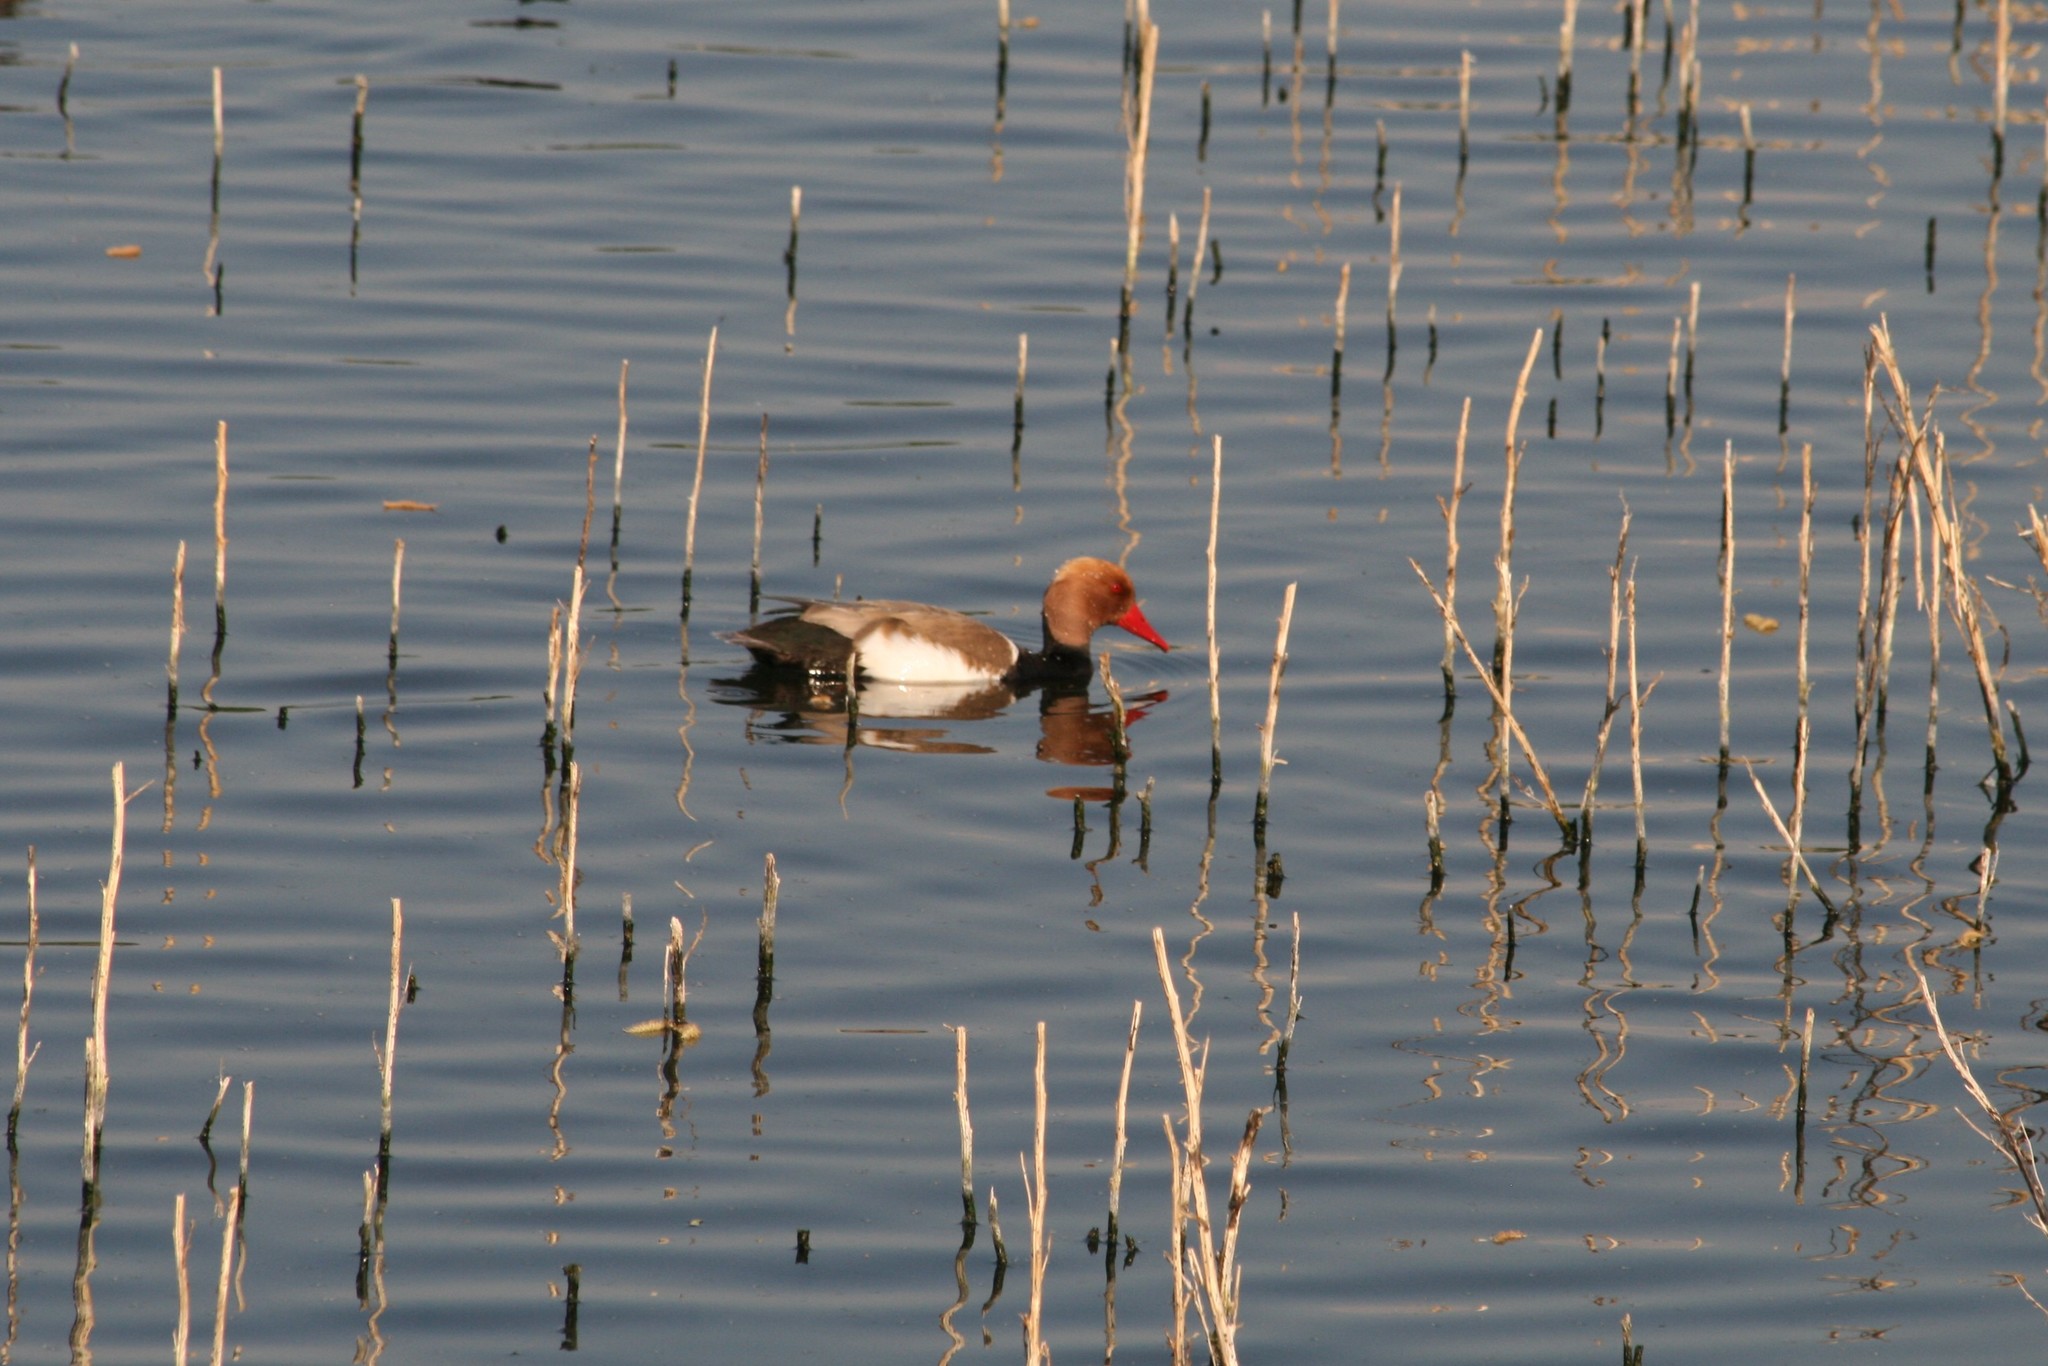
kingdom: Animalia
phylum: Chordata
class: Aves
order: Anseriformes
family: Anatidae
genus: Netta
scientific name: Netta rufina
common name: Red-crested pochard
